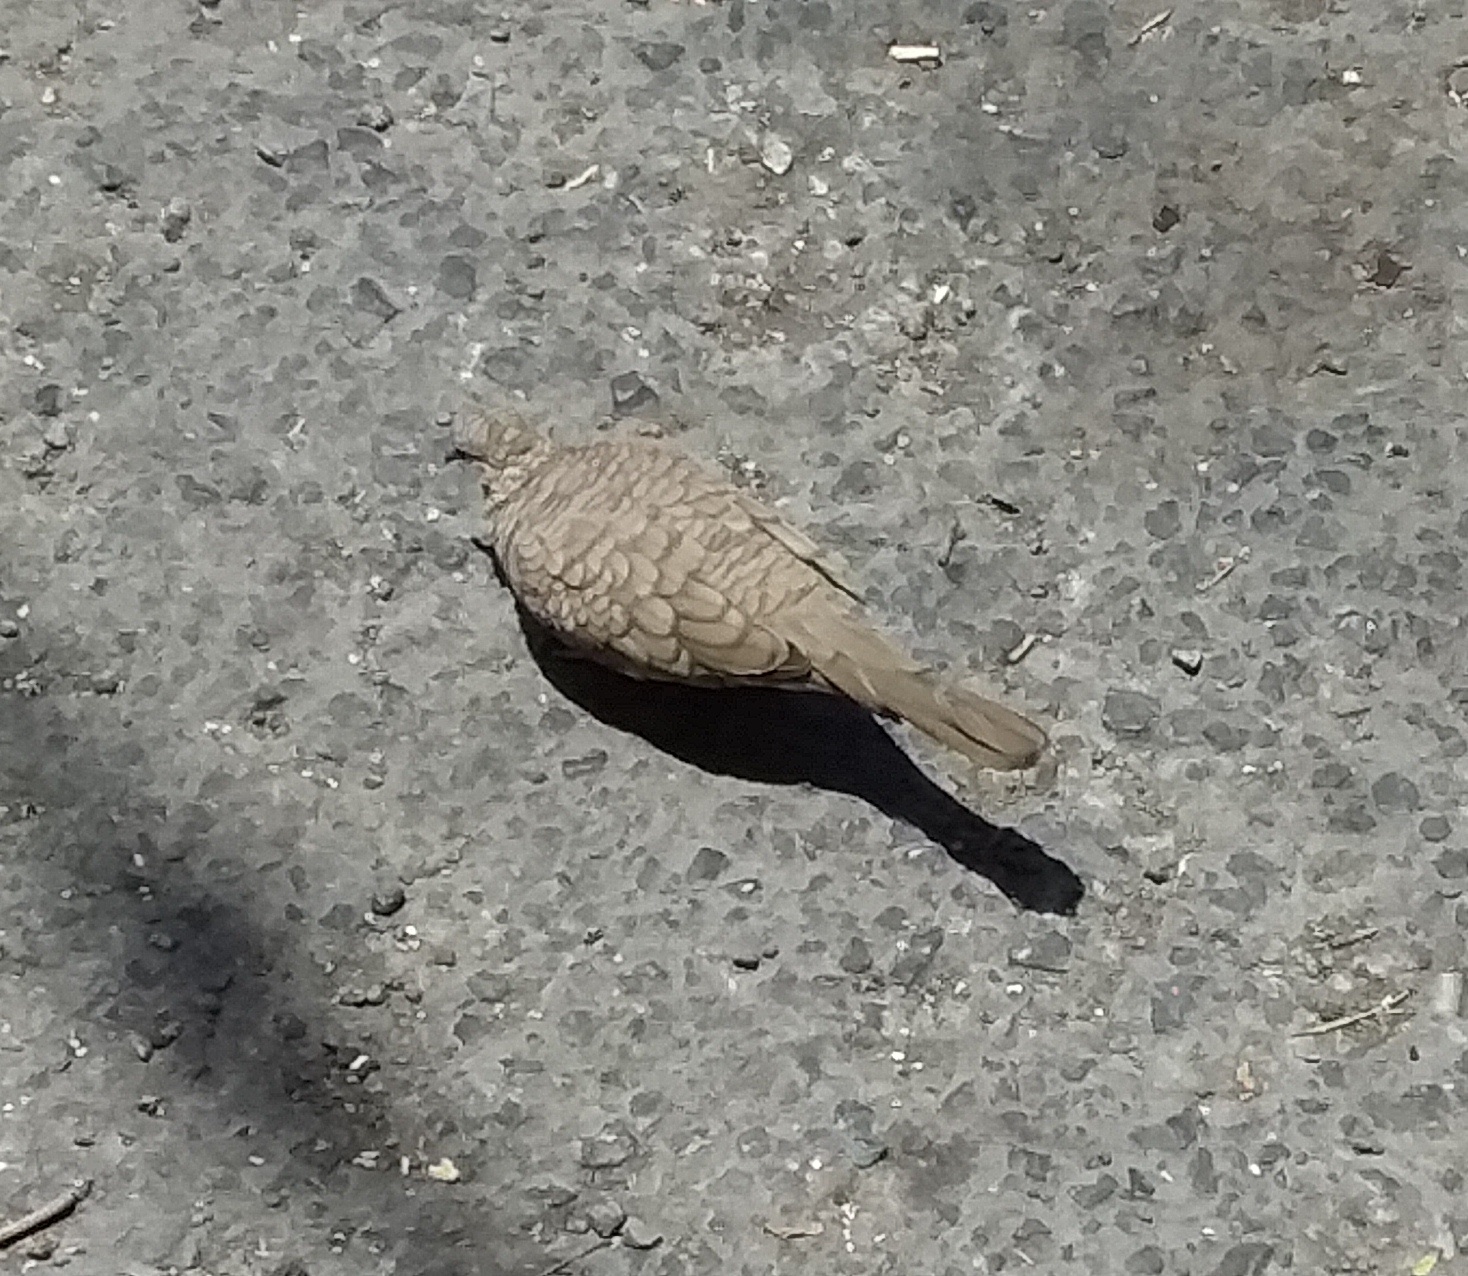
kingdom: Animalia
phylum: Chordata
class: Aves
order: Columbiformes
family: Columbidae
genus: Columbina
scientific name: Columbina inca
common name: Inca dove
